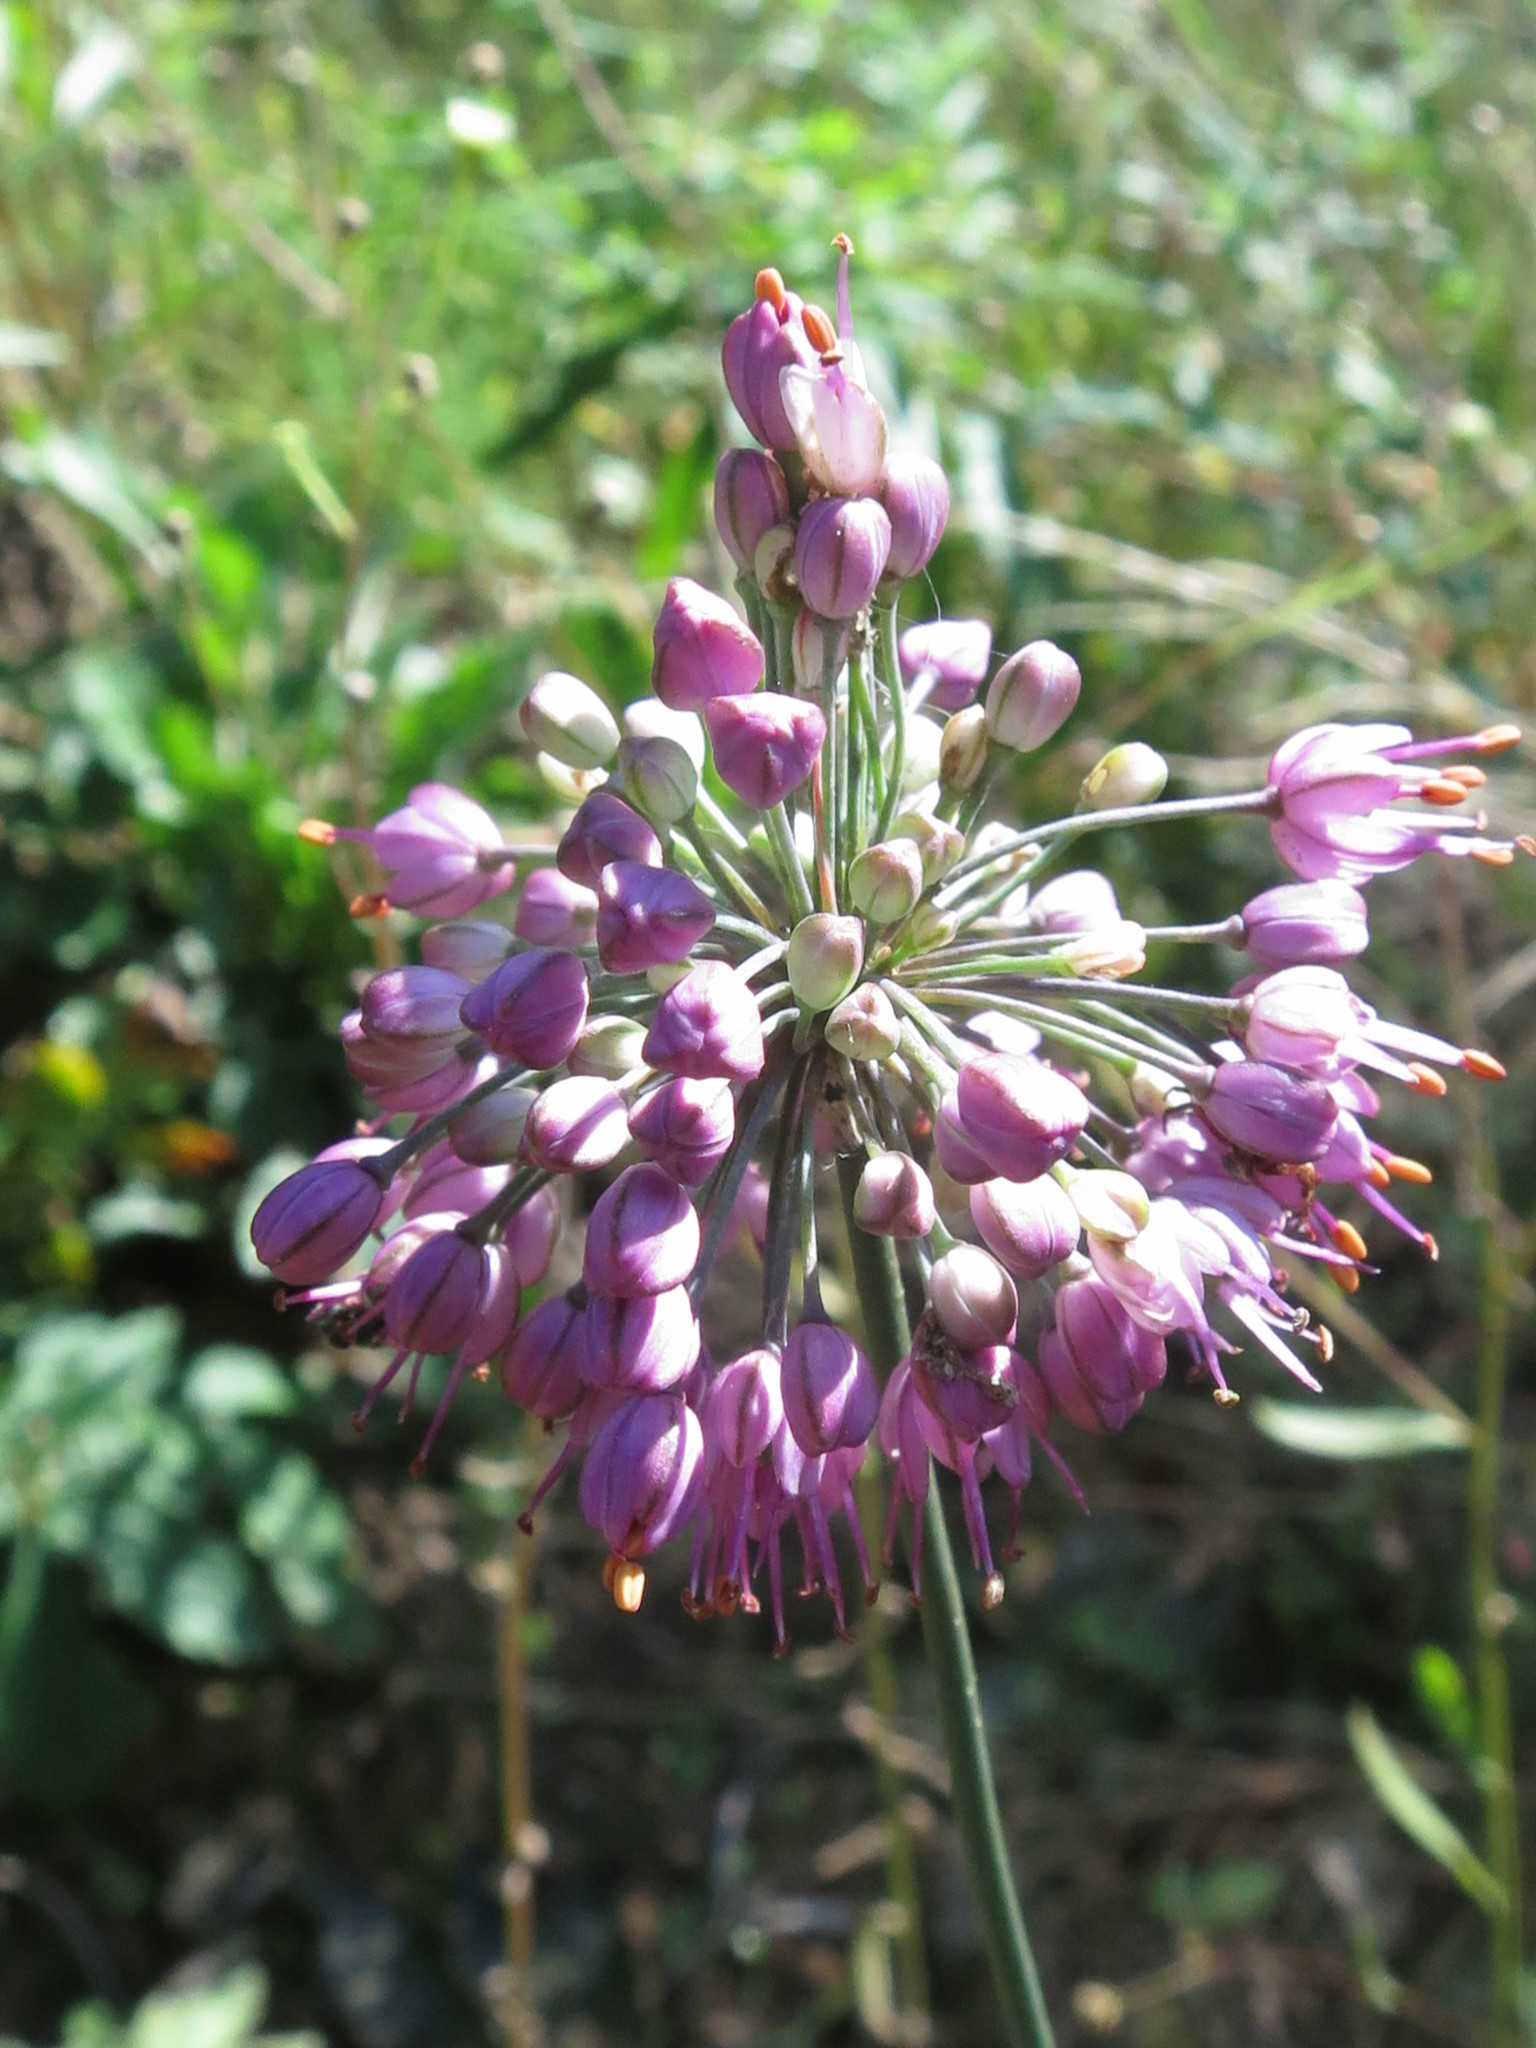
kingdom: Plantae
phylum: Tracheophyta
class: Liliopsida
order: Asparagales
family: Amaryllidaceae
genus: Allium
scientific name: Allium sacculiferum
